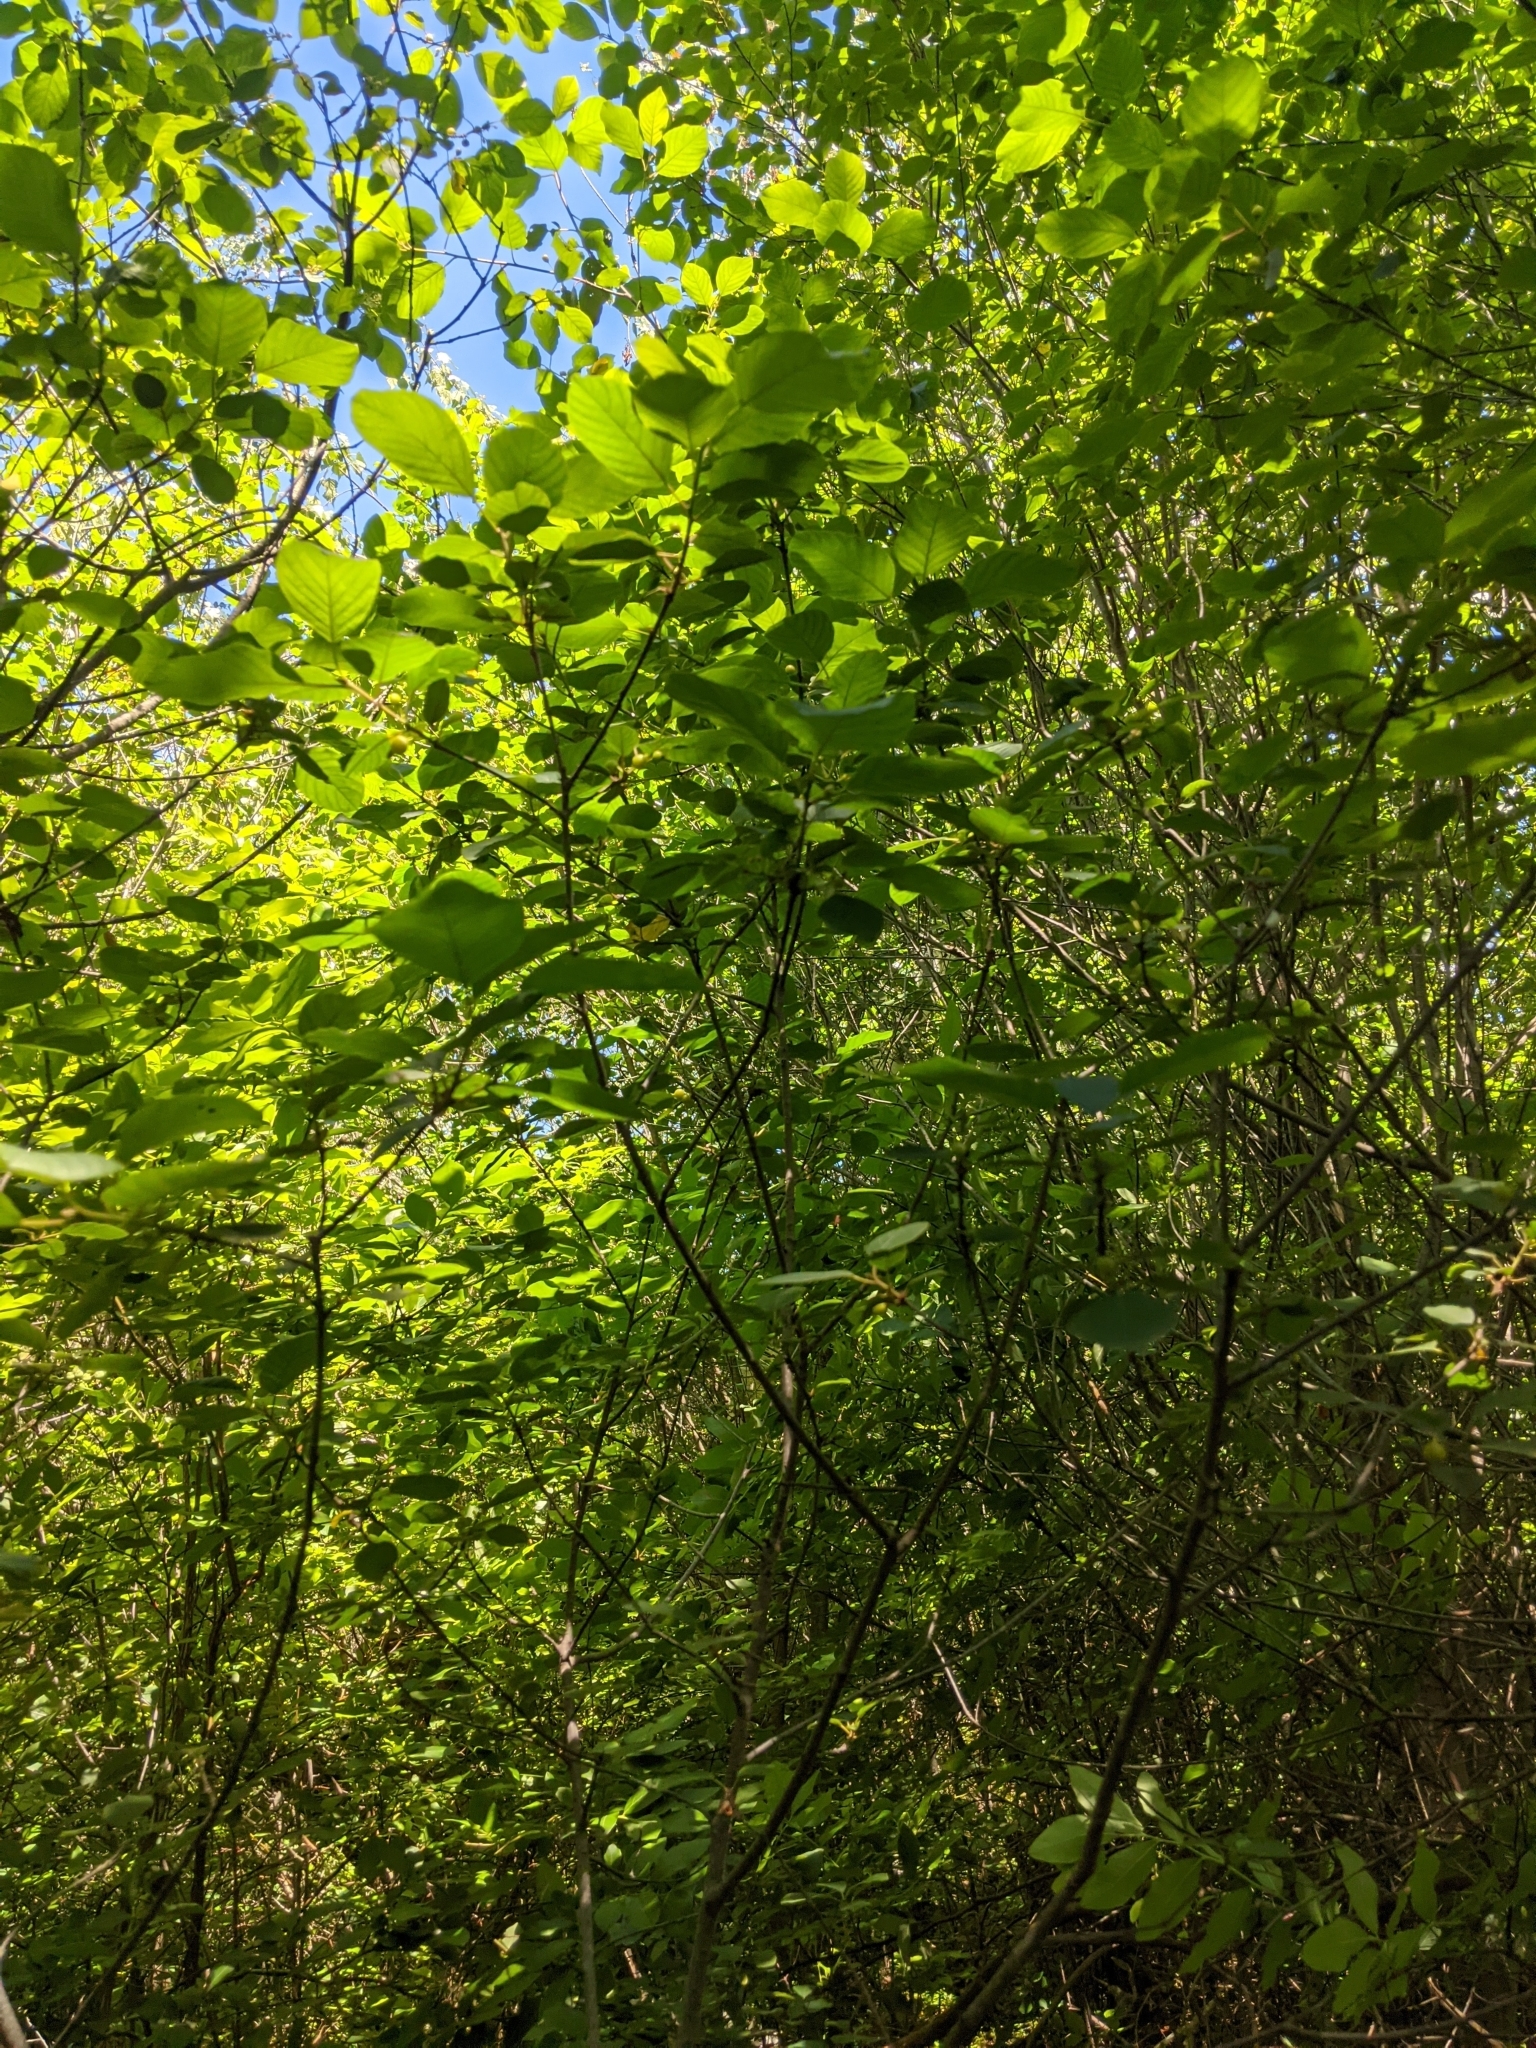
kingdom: Plantae
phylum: Tracheophyta
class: Magnoliopsida
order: Rosales
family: Rhamnaceae
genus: Frangula
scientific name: Frangula alnus
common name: Alder buckthorn
